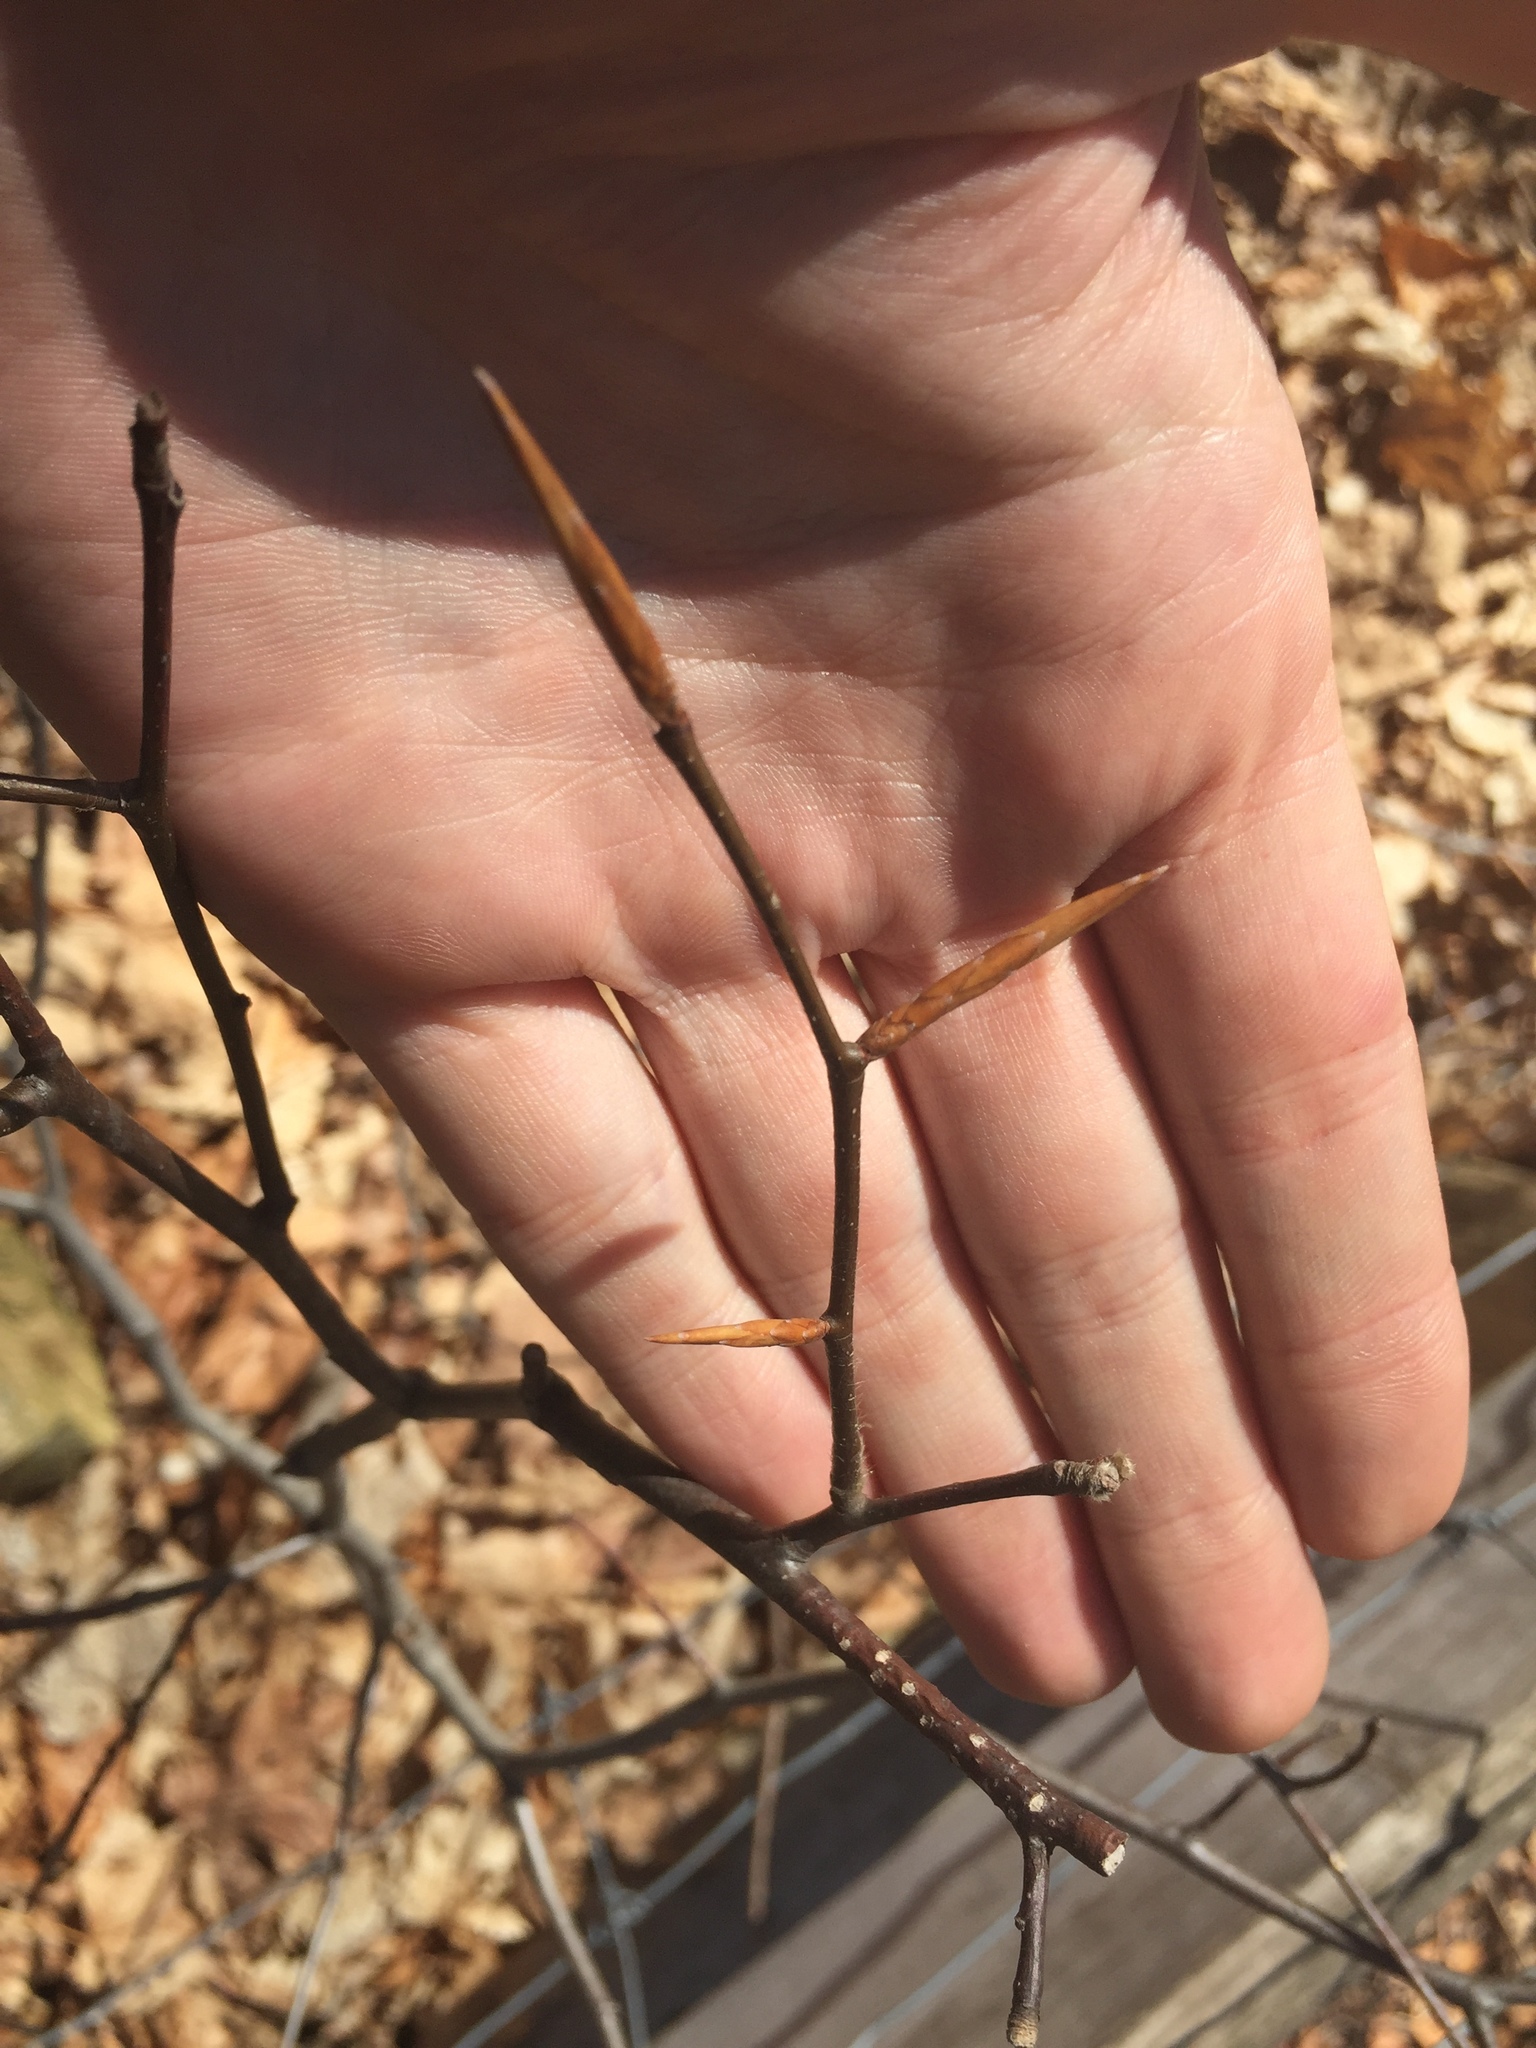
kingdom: Plantae
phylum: Tracheophyta
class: Magnoliopsida
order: Fagales
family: Fagaceae
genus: Fagus
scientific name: Fagus grandifolia
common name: American beech
